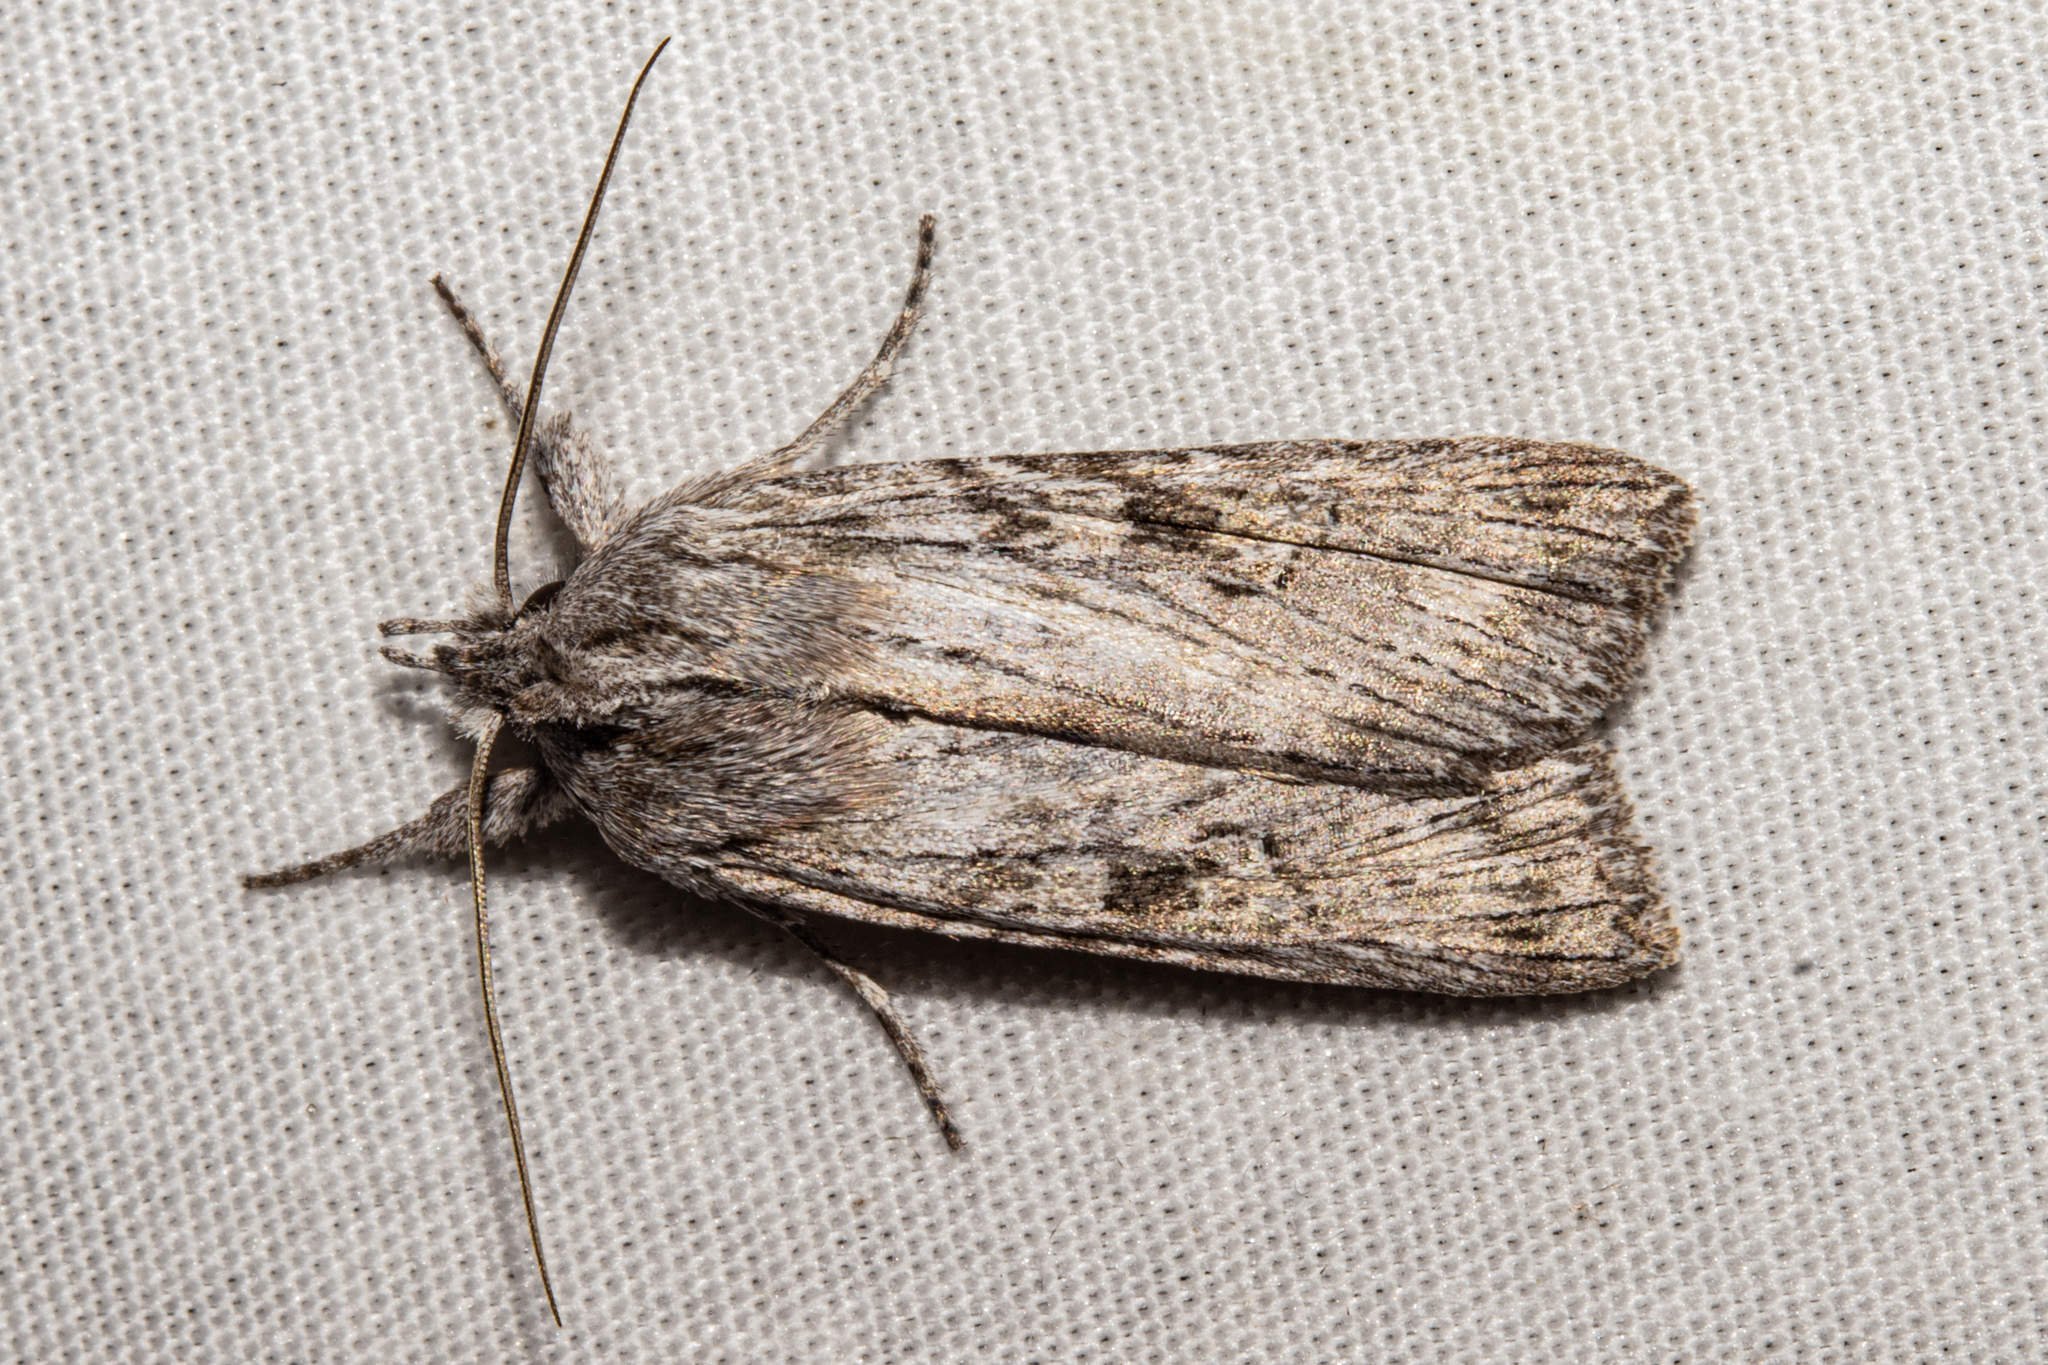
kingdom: Animalia
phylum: Arthropoda
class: Insecta
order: Lepidoptera
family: Noctuidae
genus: Physetica
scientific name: Physetica phricias
